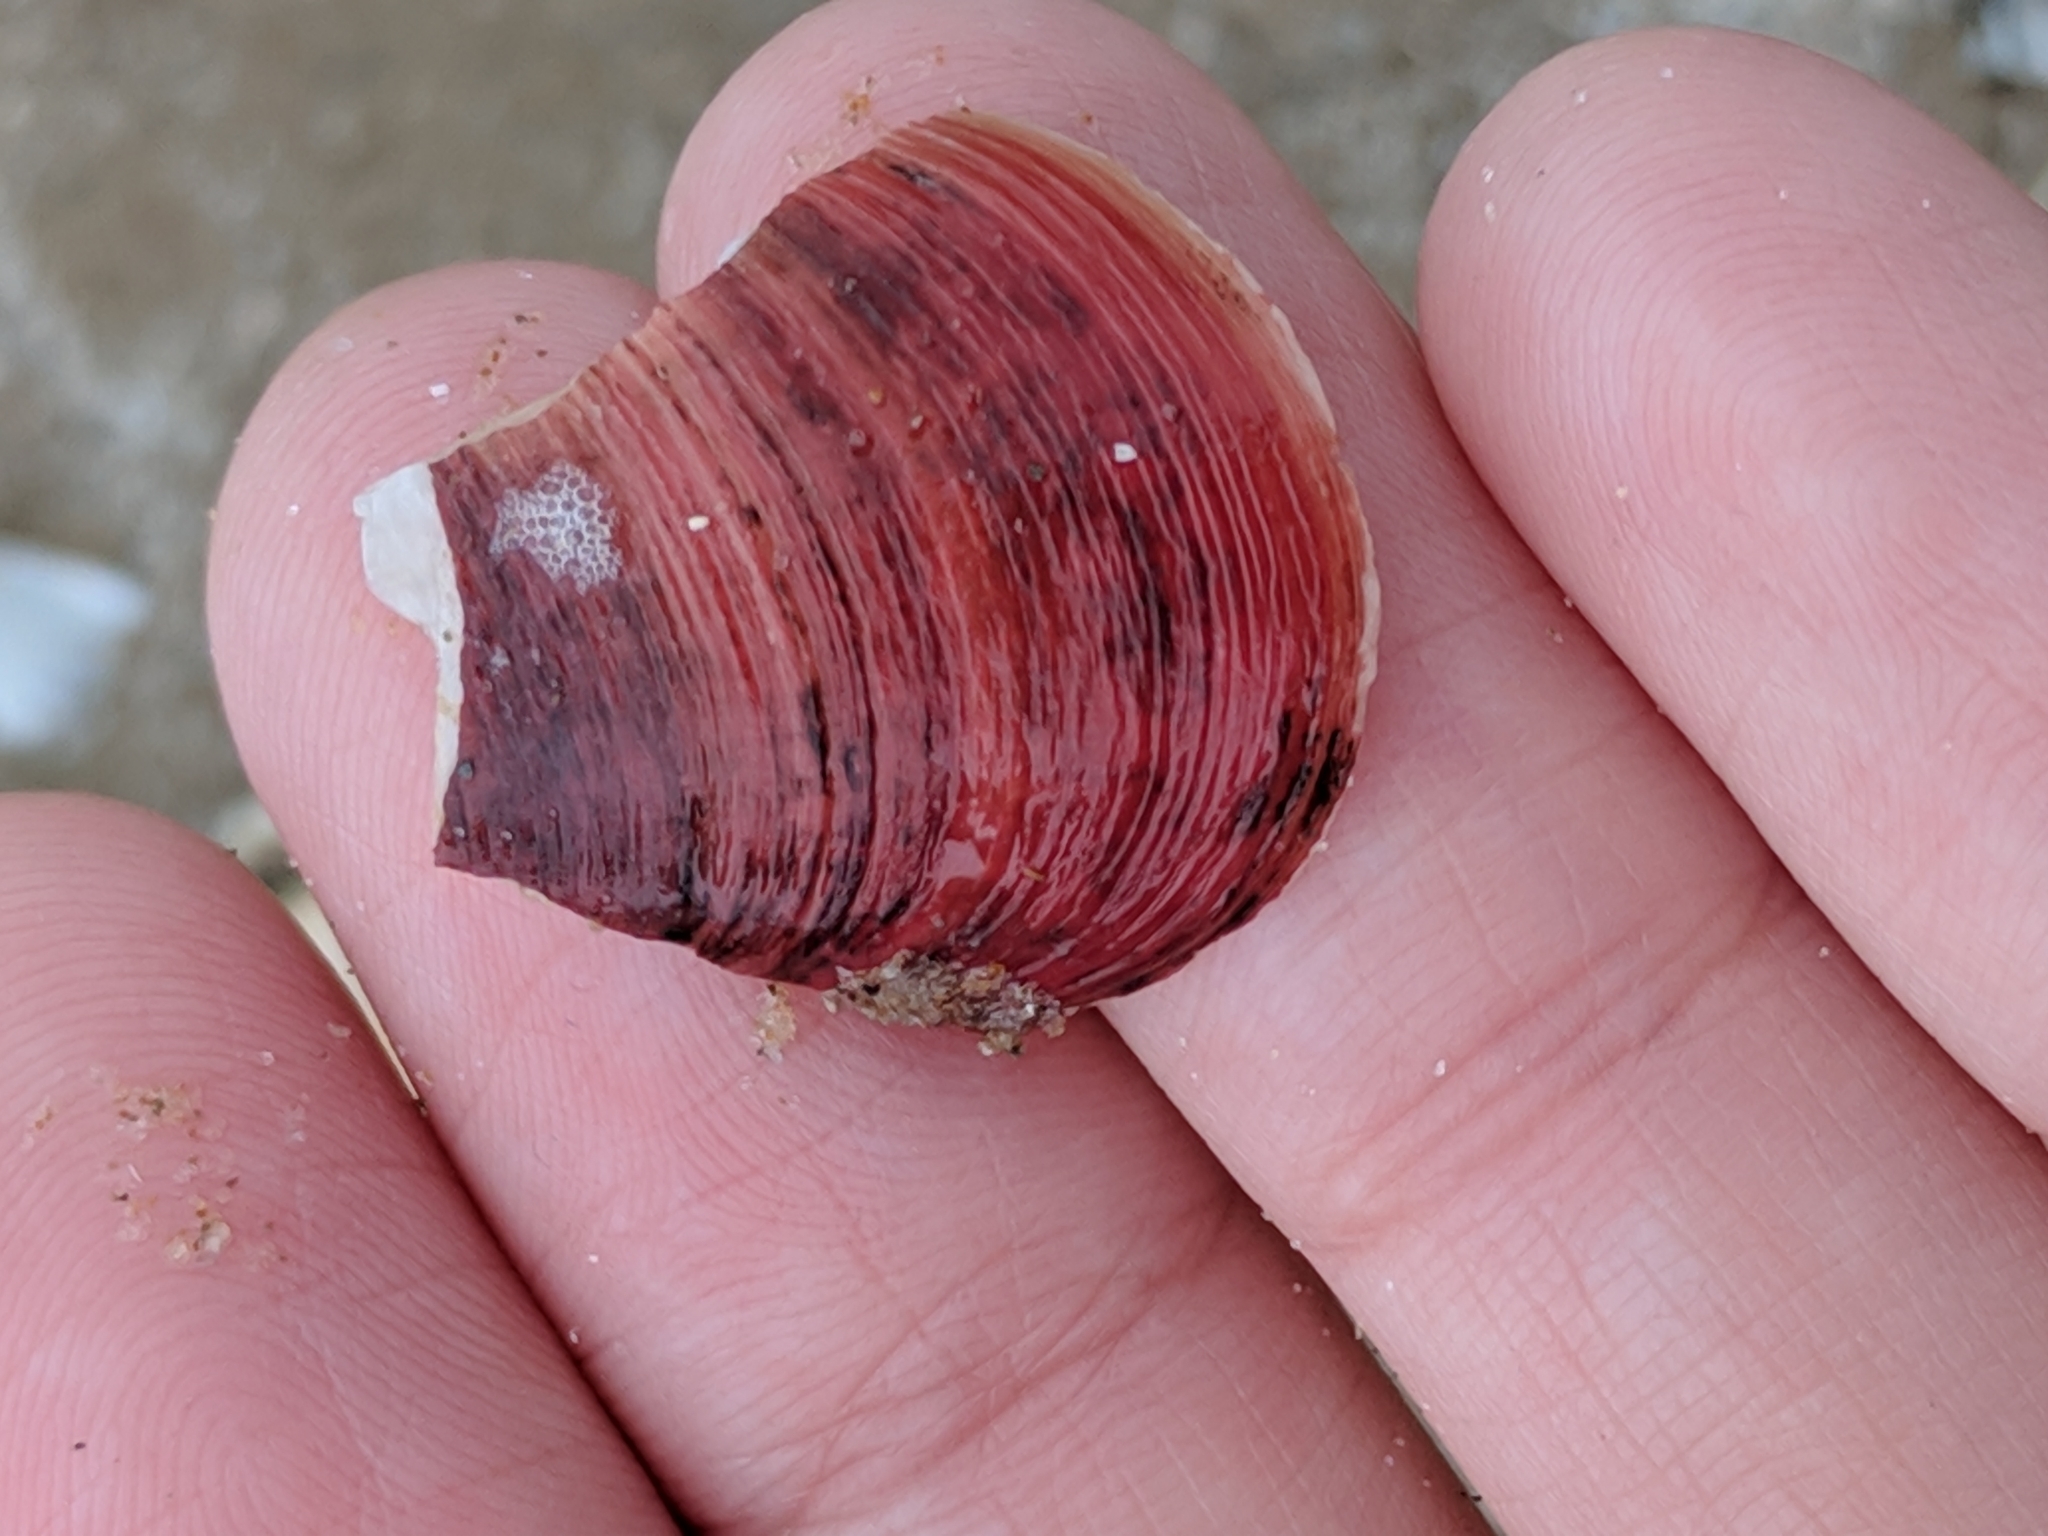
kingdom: Animalia
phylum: Mollusca
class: Bivalvia
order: Mytilida
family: Mytilidae
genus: Modiolus
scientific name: Modiolus americanus
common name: Tulip mussel
